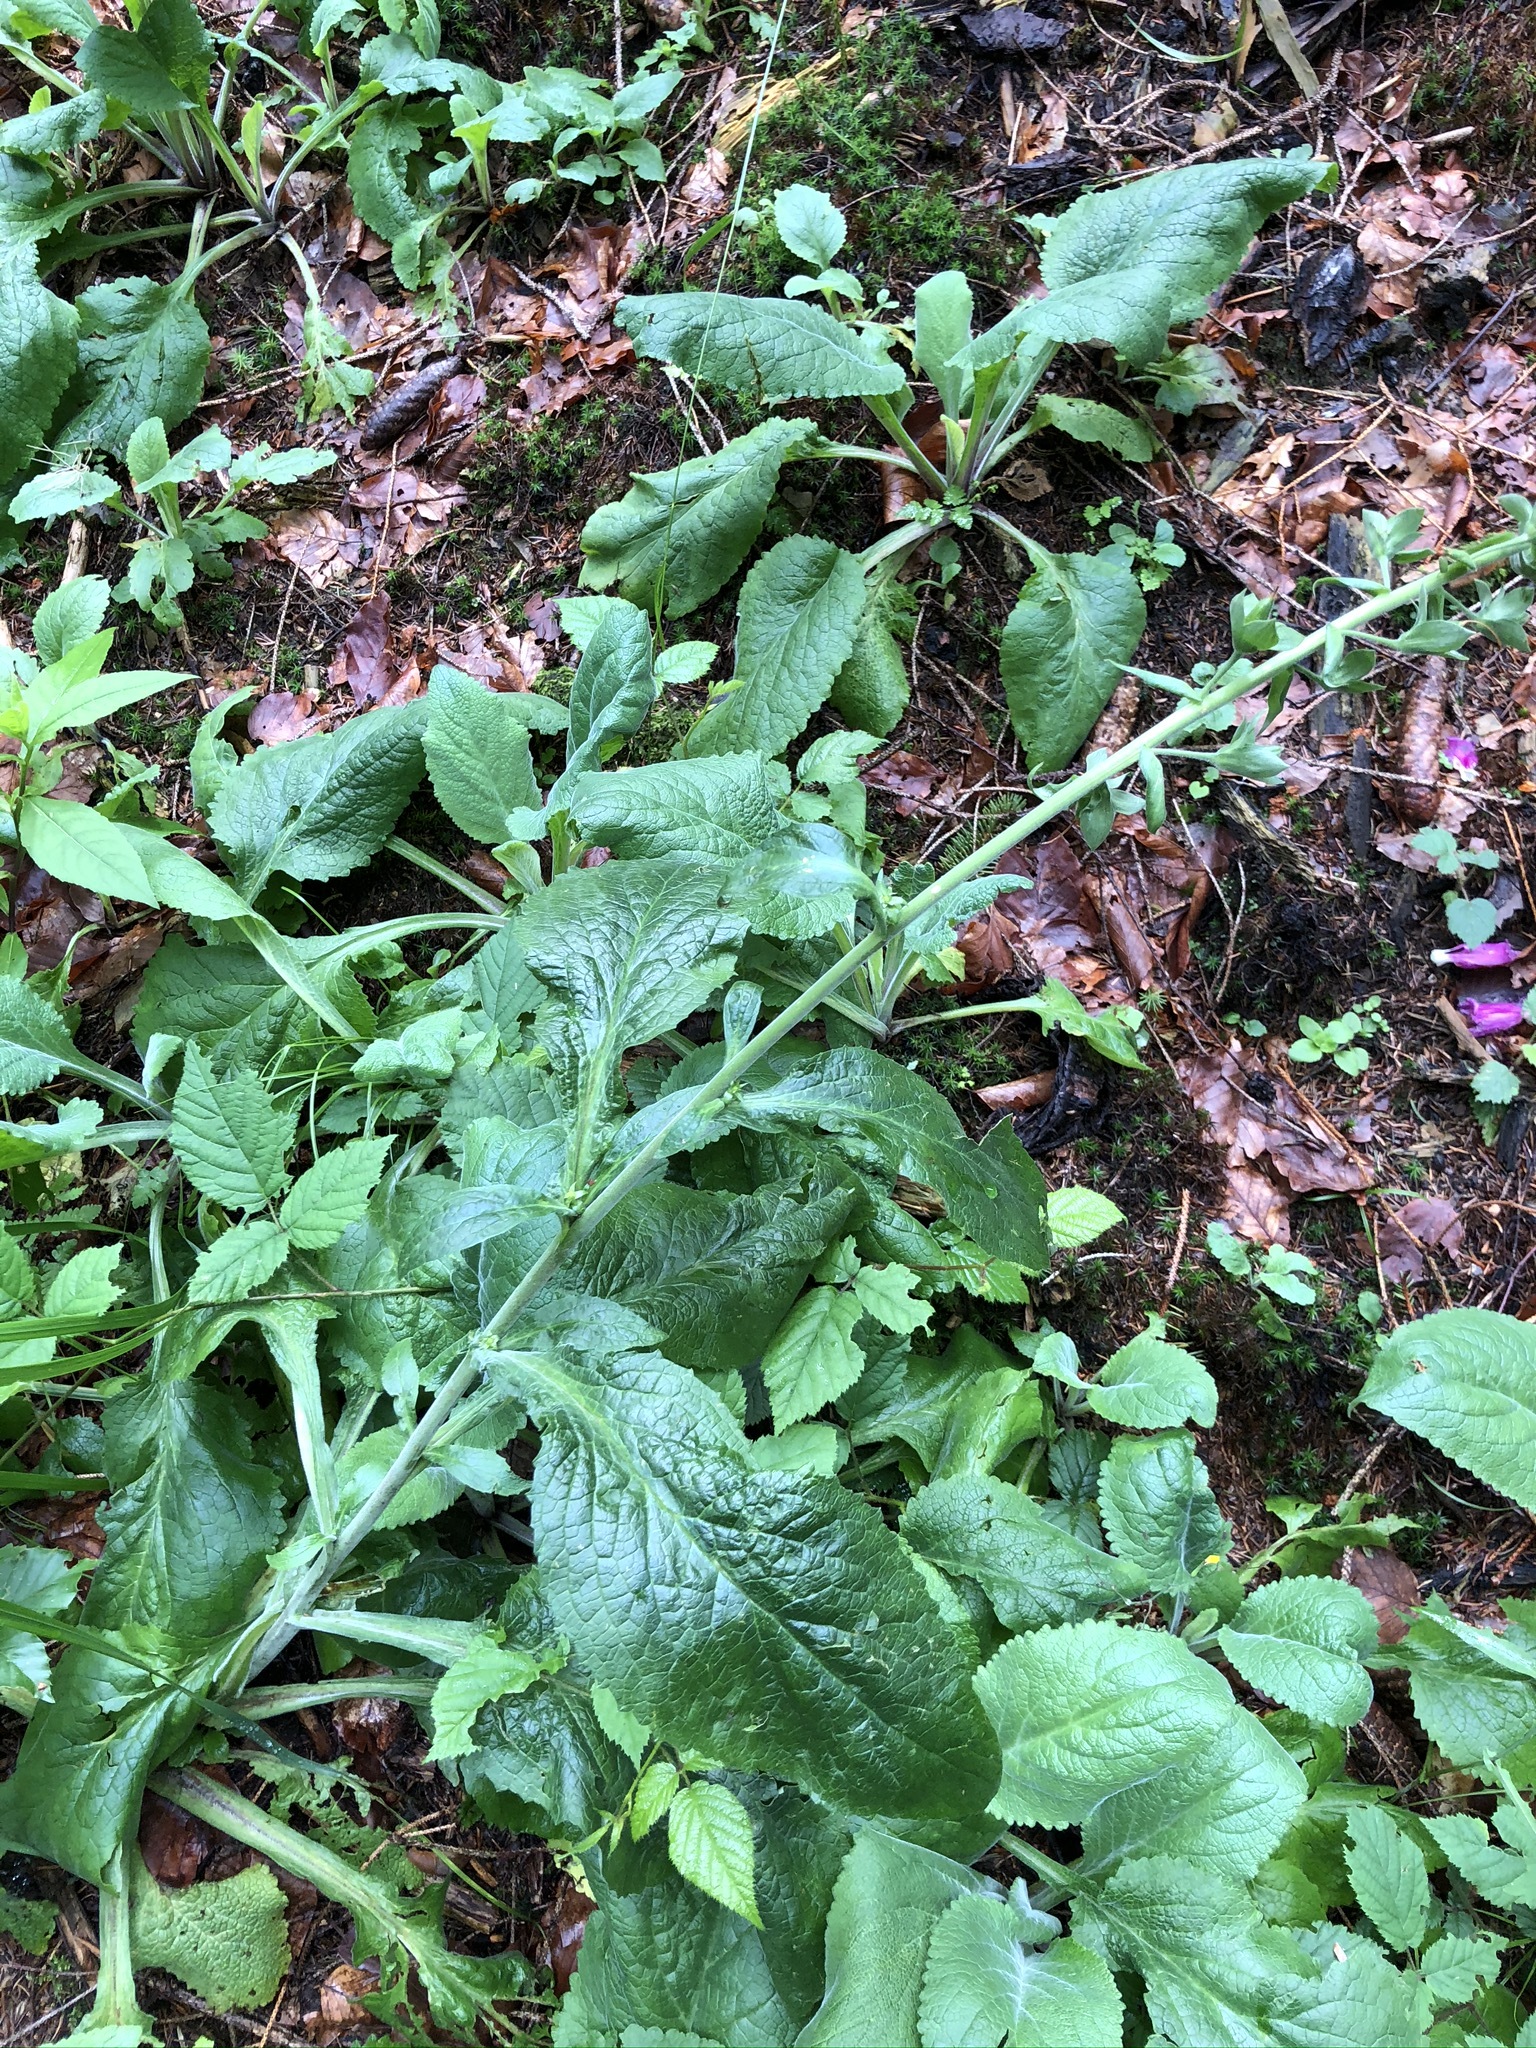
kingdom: Plantae
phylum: Tracheophyta
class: Magnoliopsida
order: Lamiales
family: Plantaginaceae
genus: Digitalis
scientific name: Digitalis purpurea
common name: Foxglove
